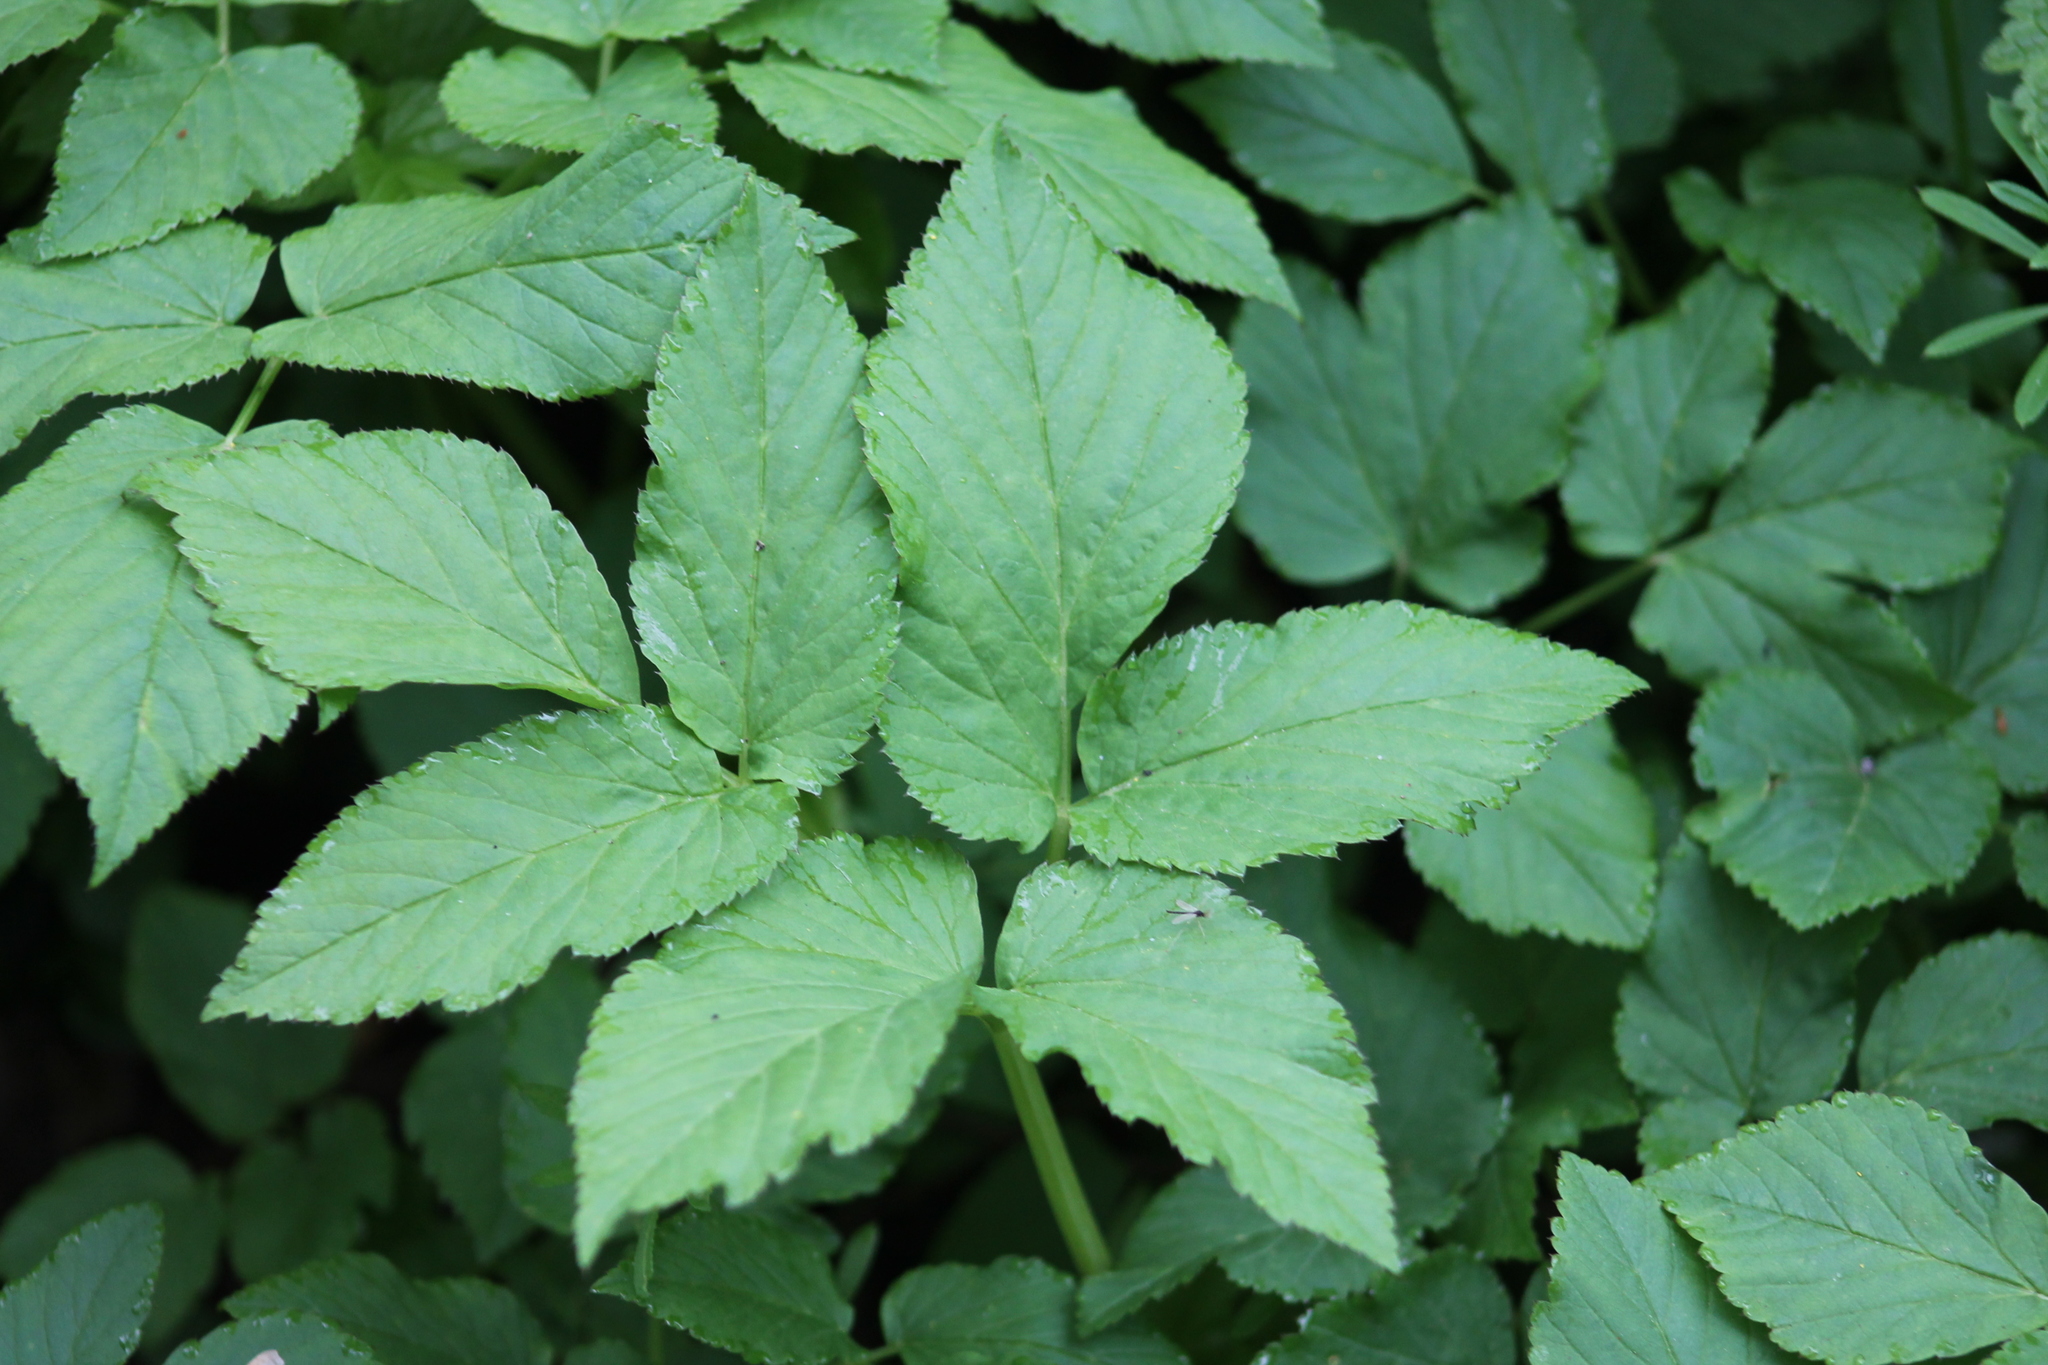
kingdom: Plantae
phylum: Tracheophyta
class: Magnoliopsida
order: Apiales
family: Apiaceae
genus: Aegopodium
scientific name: Aegopodium podagraria
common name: Ground-elder
